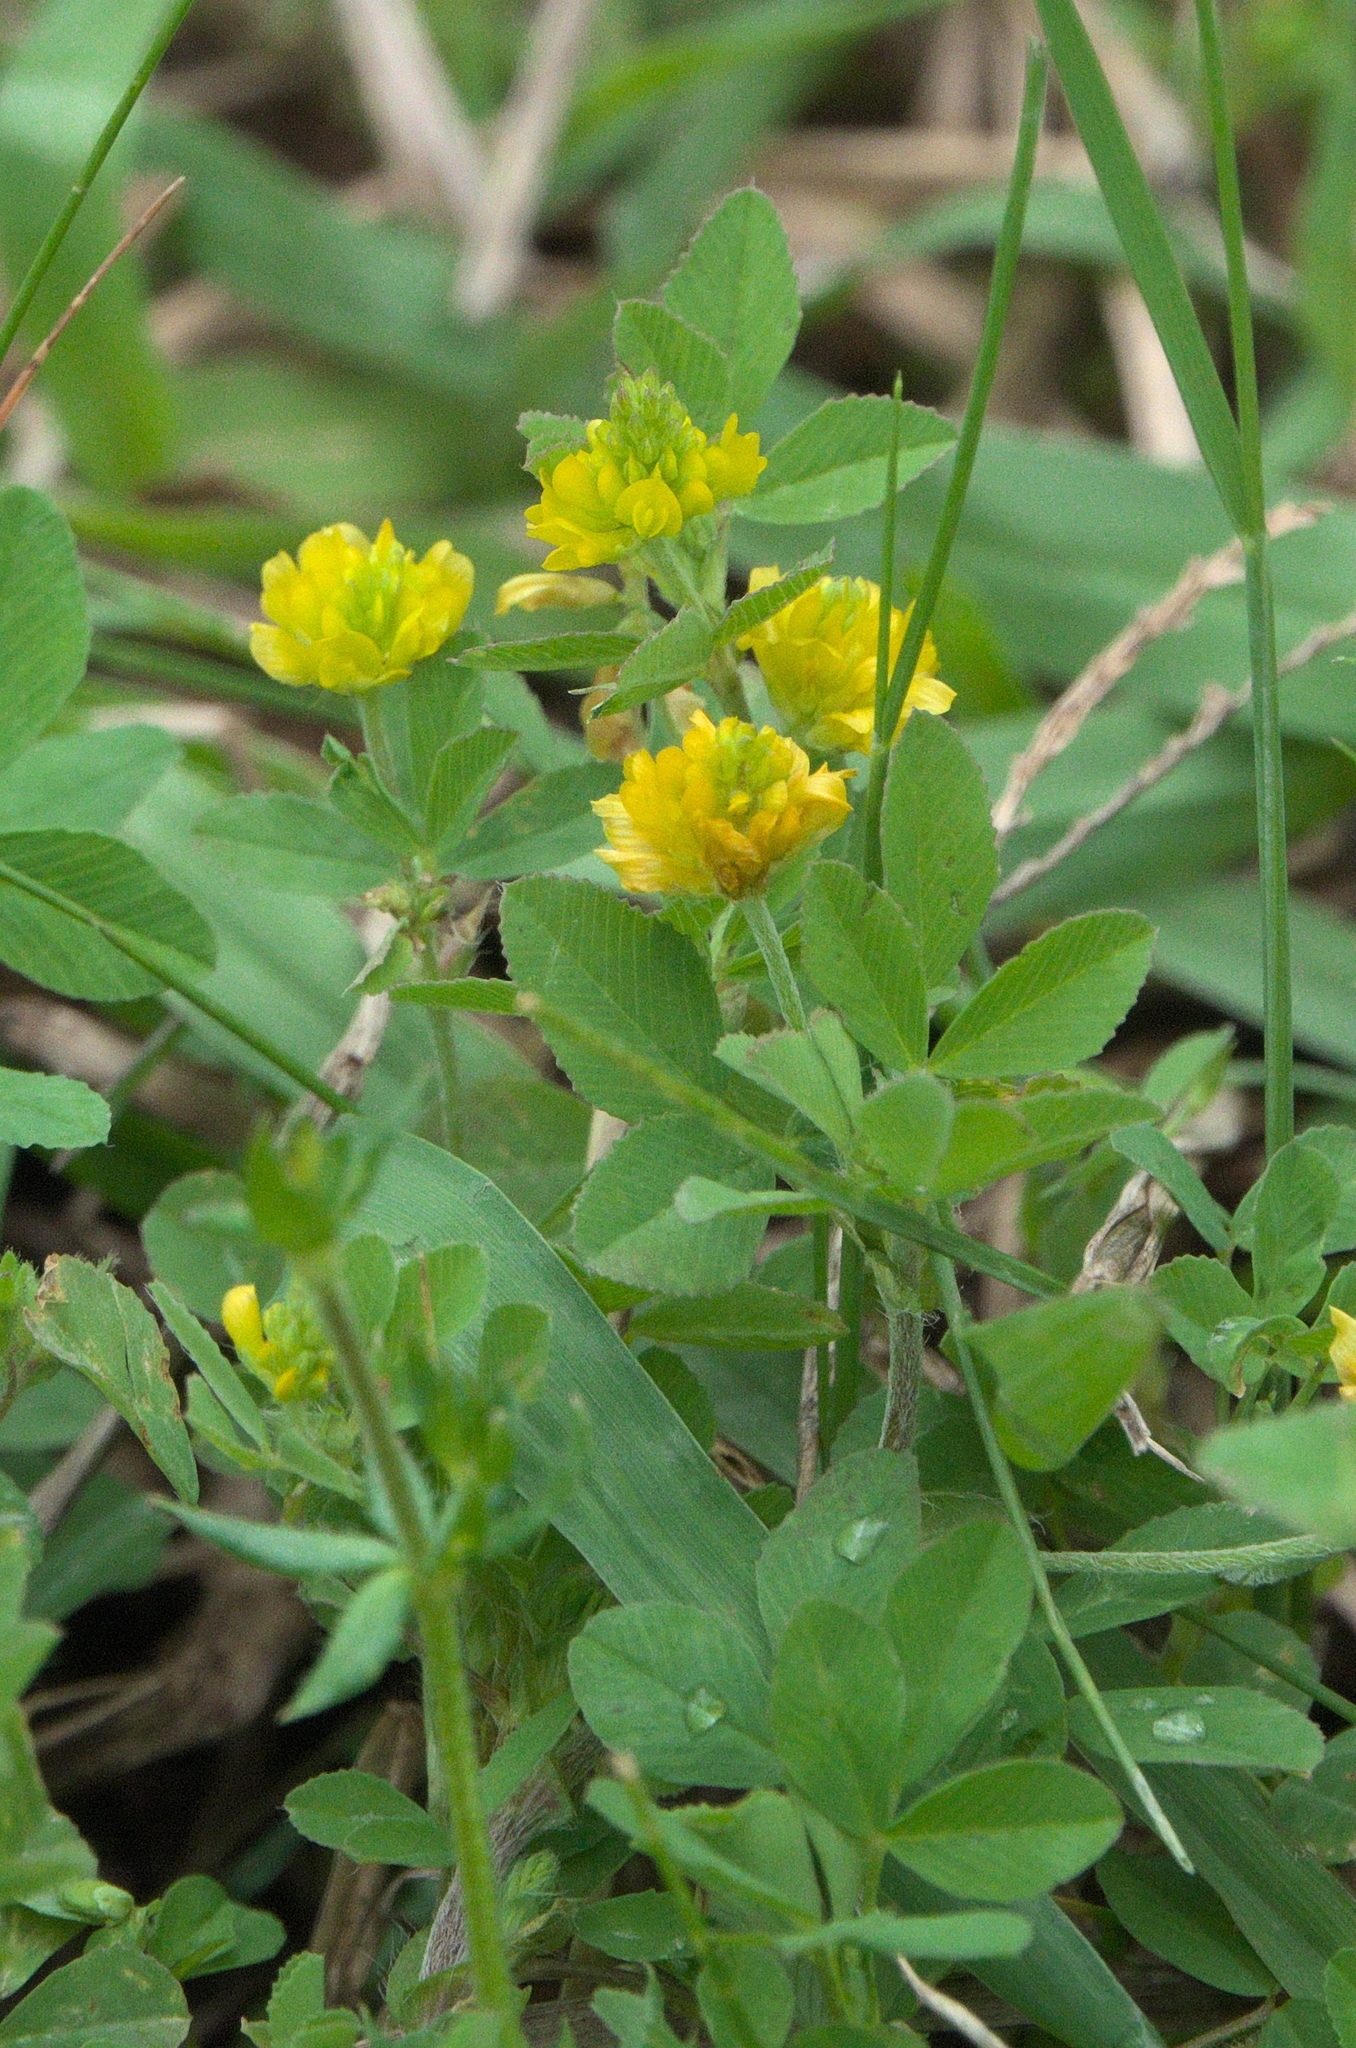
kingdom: Plantae
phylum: Tracheophyta
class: Magnoliopsida
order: Fabales
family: Fabaceae
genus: Trifolium
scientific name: Trifolium campestre
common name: Field clover
